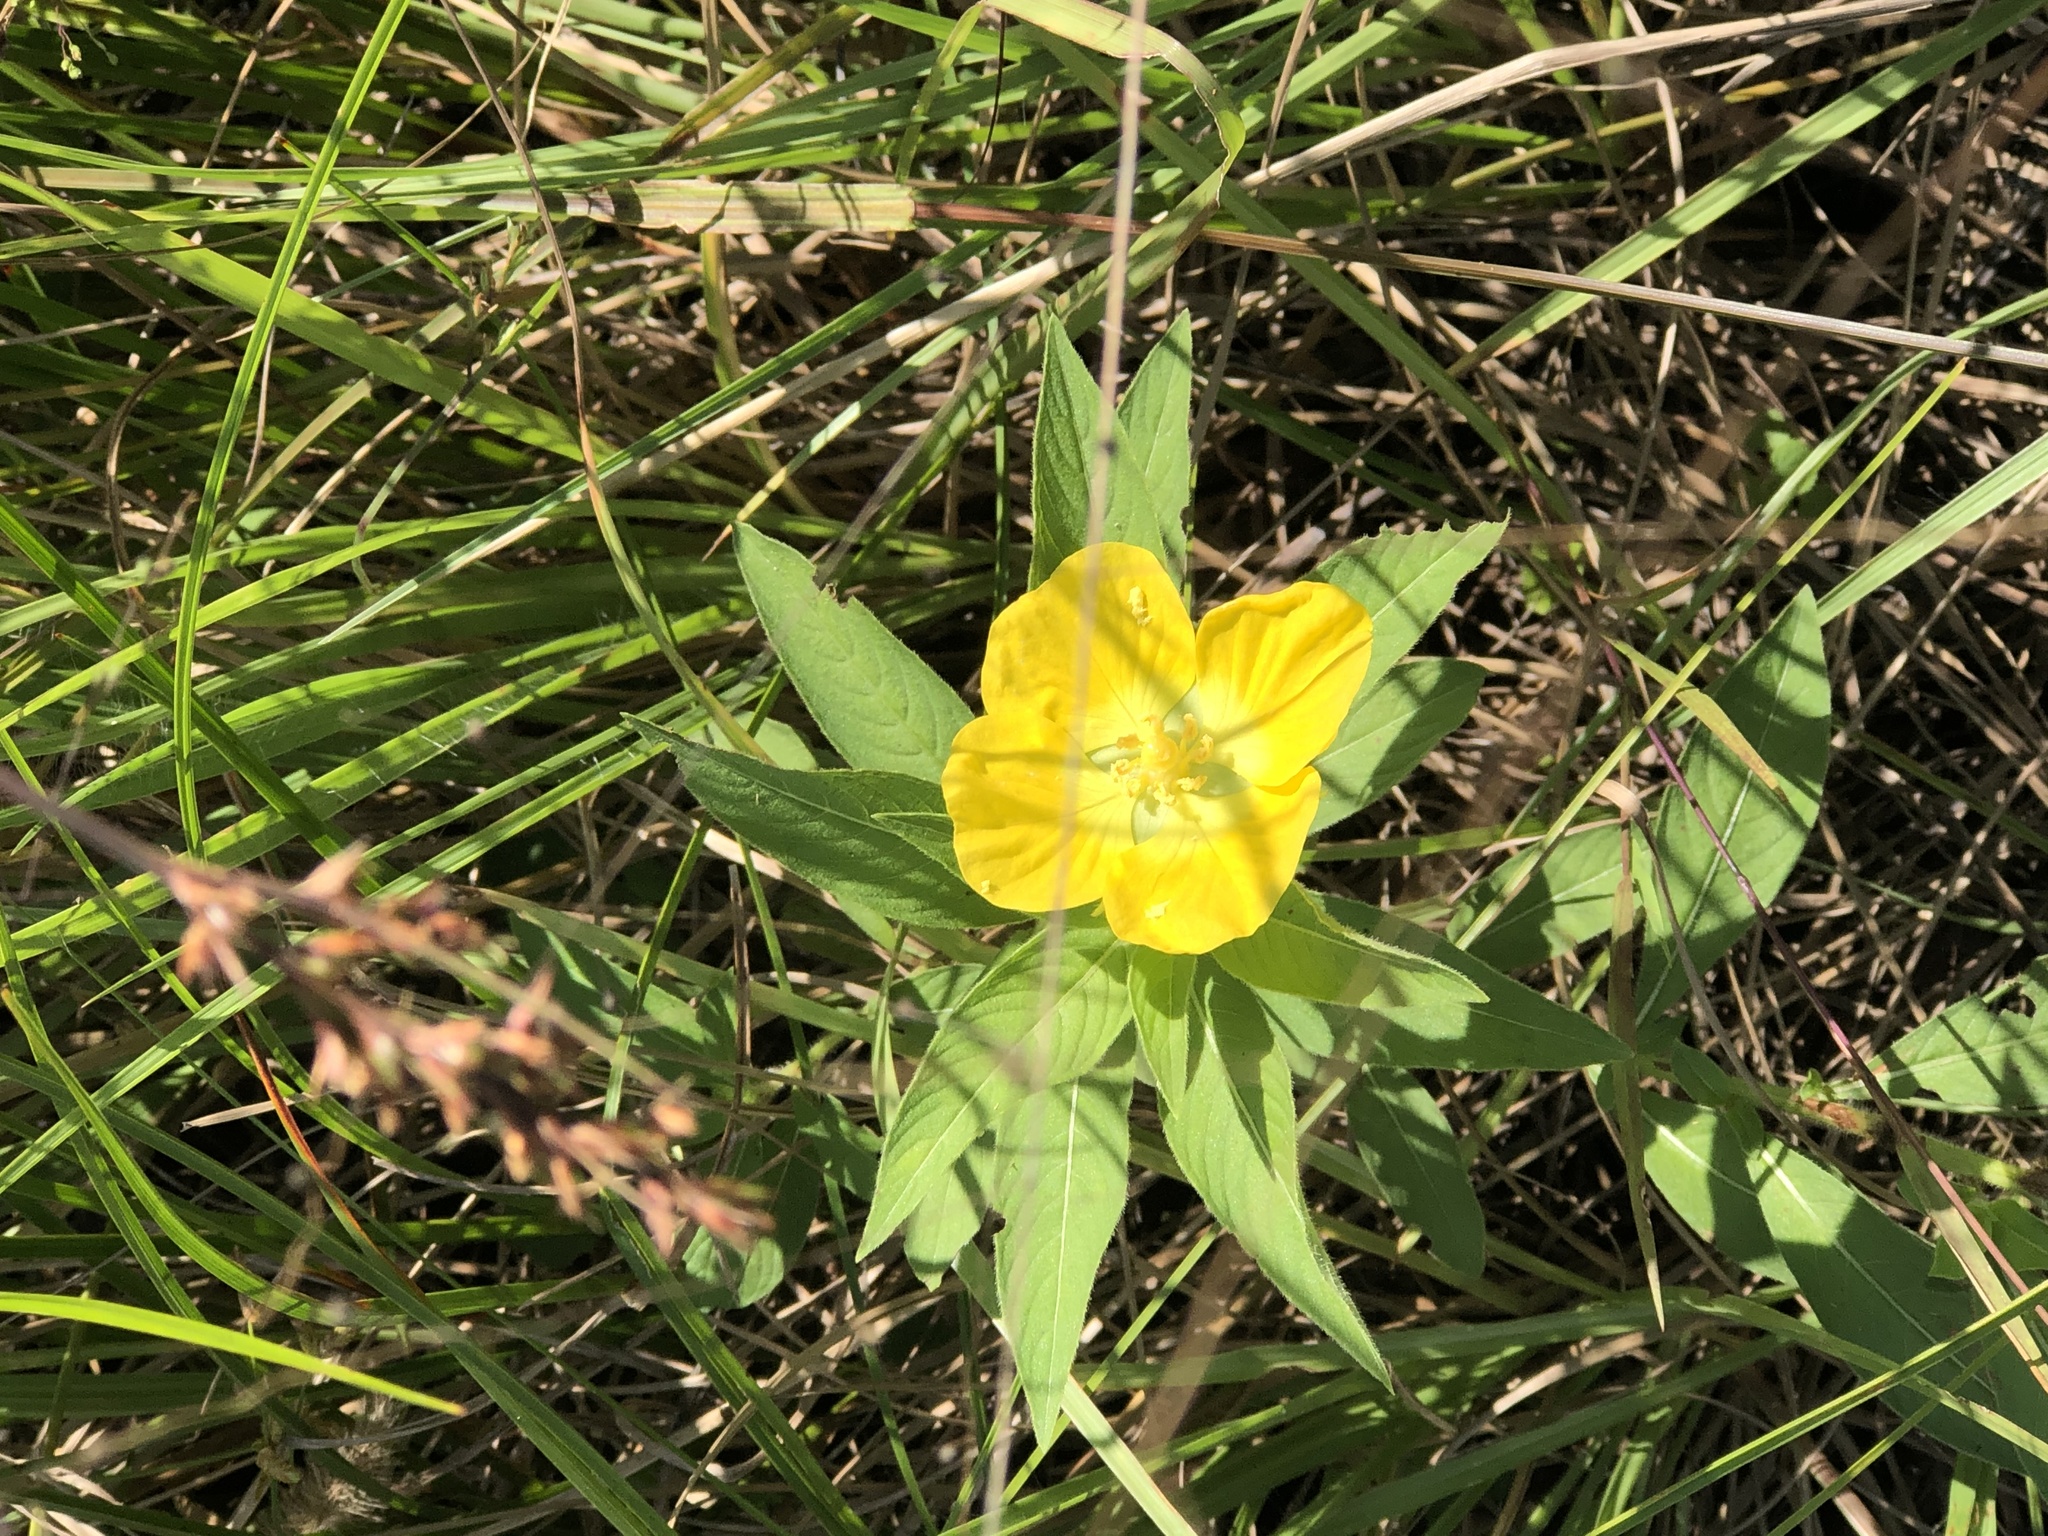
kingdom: Plantae
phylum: Tracheophyta
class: Magnoliopsida
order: Myrtales
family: Onagraceae
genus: Ludwigia
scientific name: Ludwigia peruviana
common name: Peruvian primrose-willow
